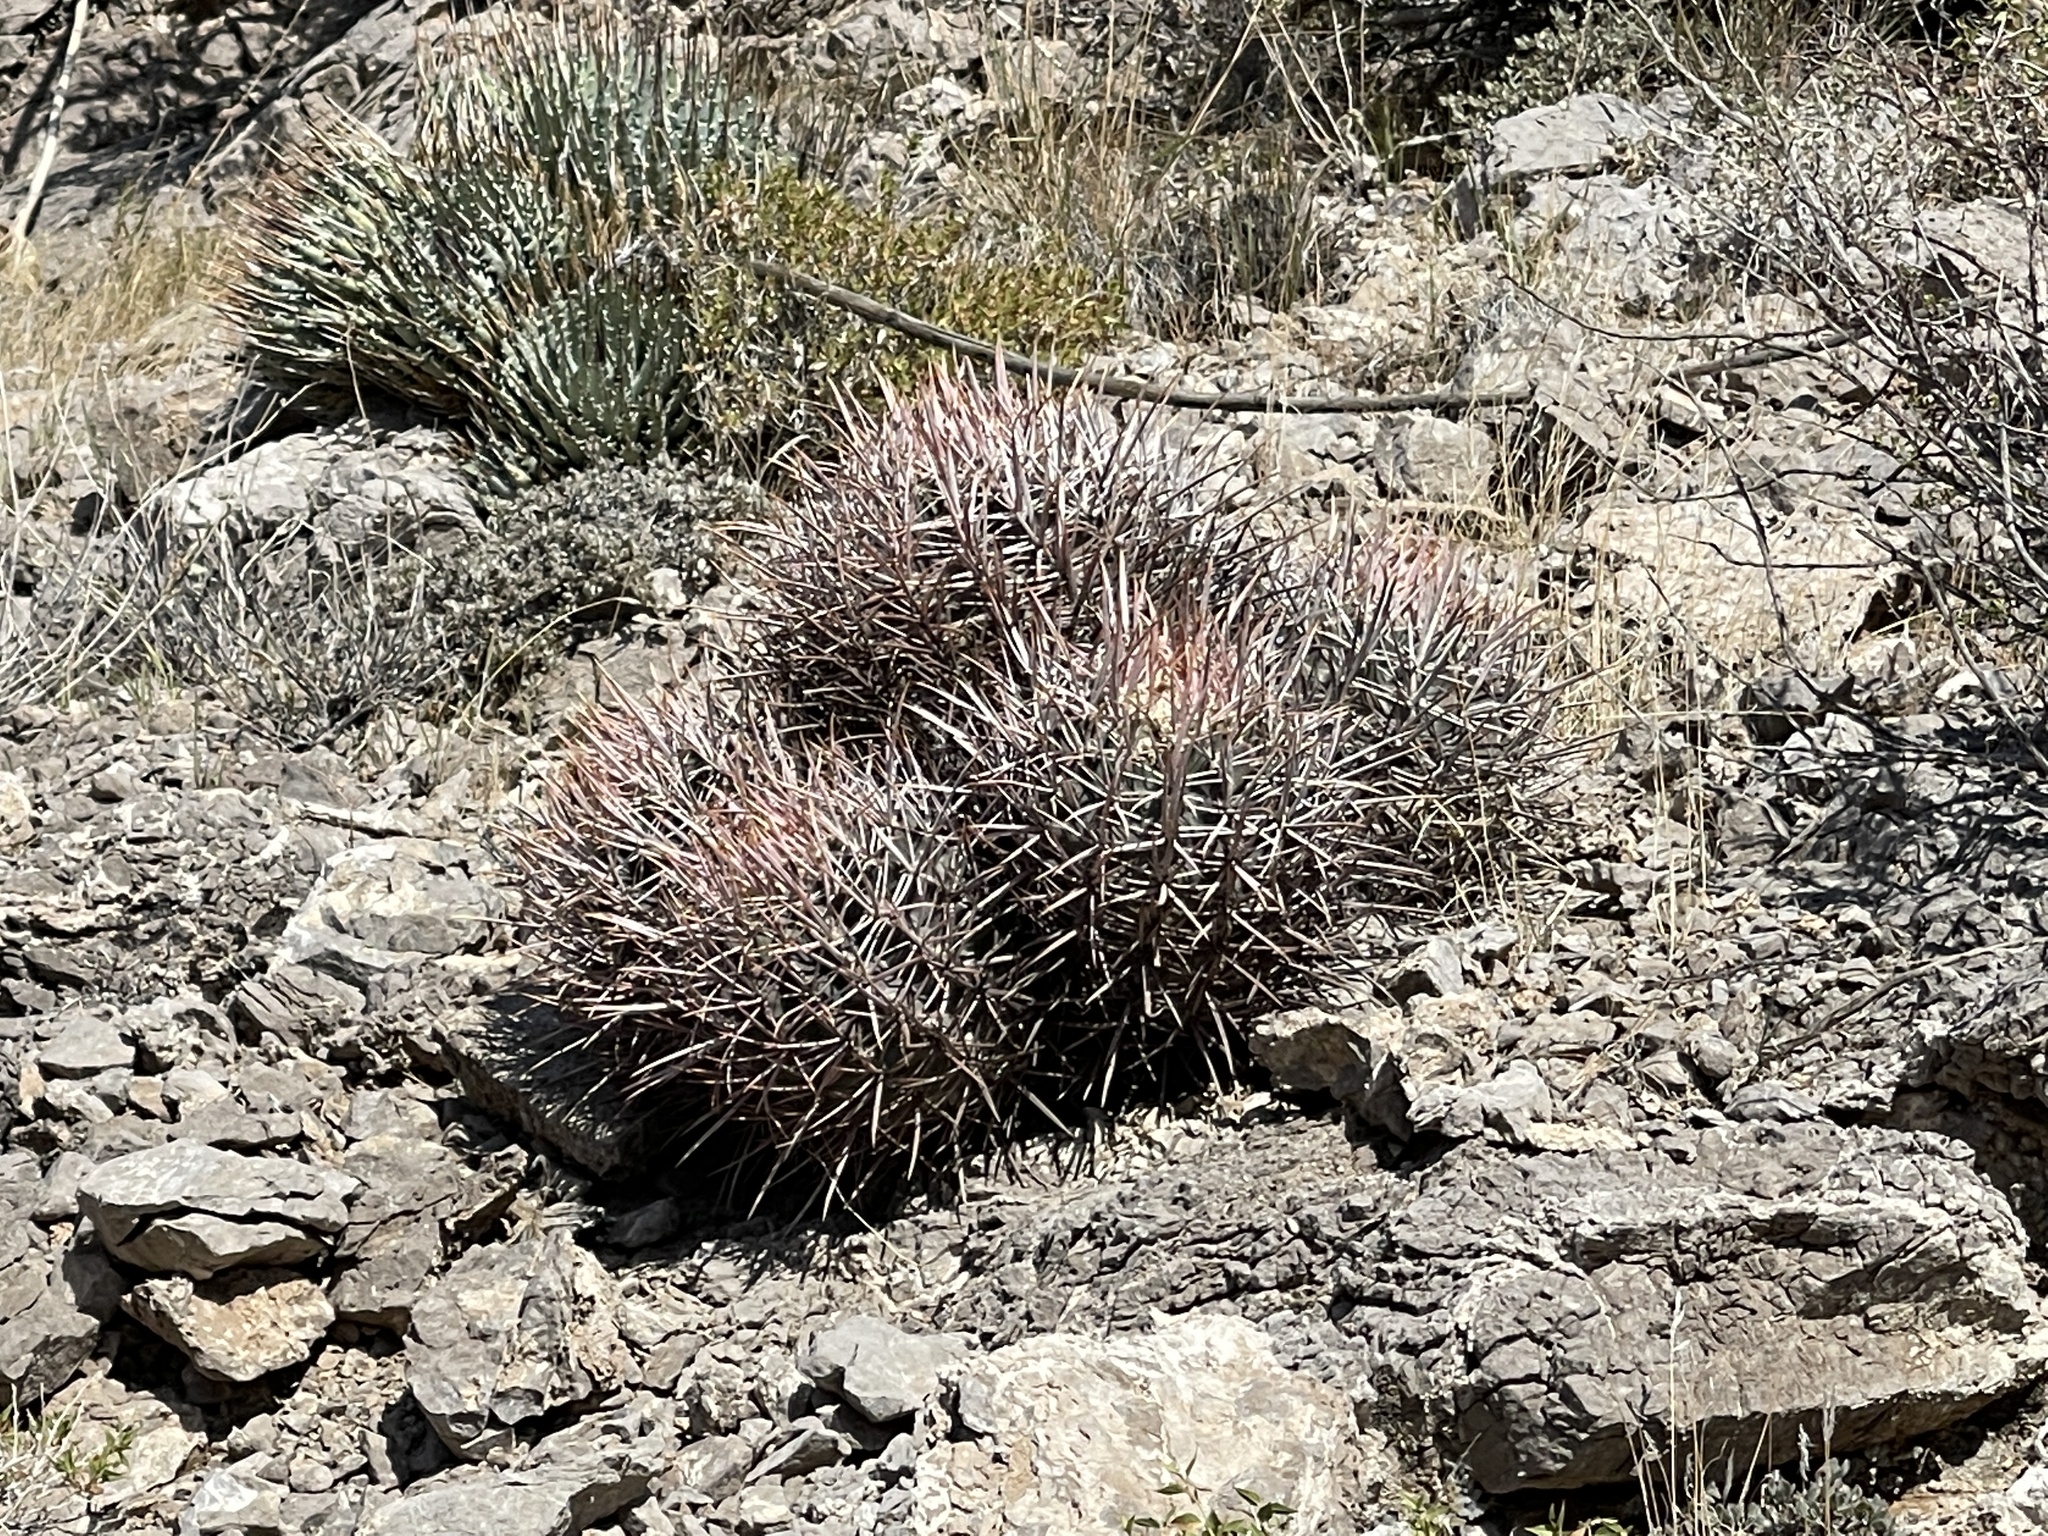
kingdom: Plantae
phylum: Tracheophyta
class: Magnoliopsida
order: Caryophyllales
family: Cactaceae
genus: Echinocactus
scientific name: Echinocactus polycephalus
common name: Cottontop cactus
